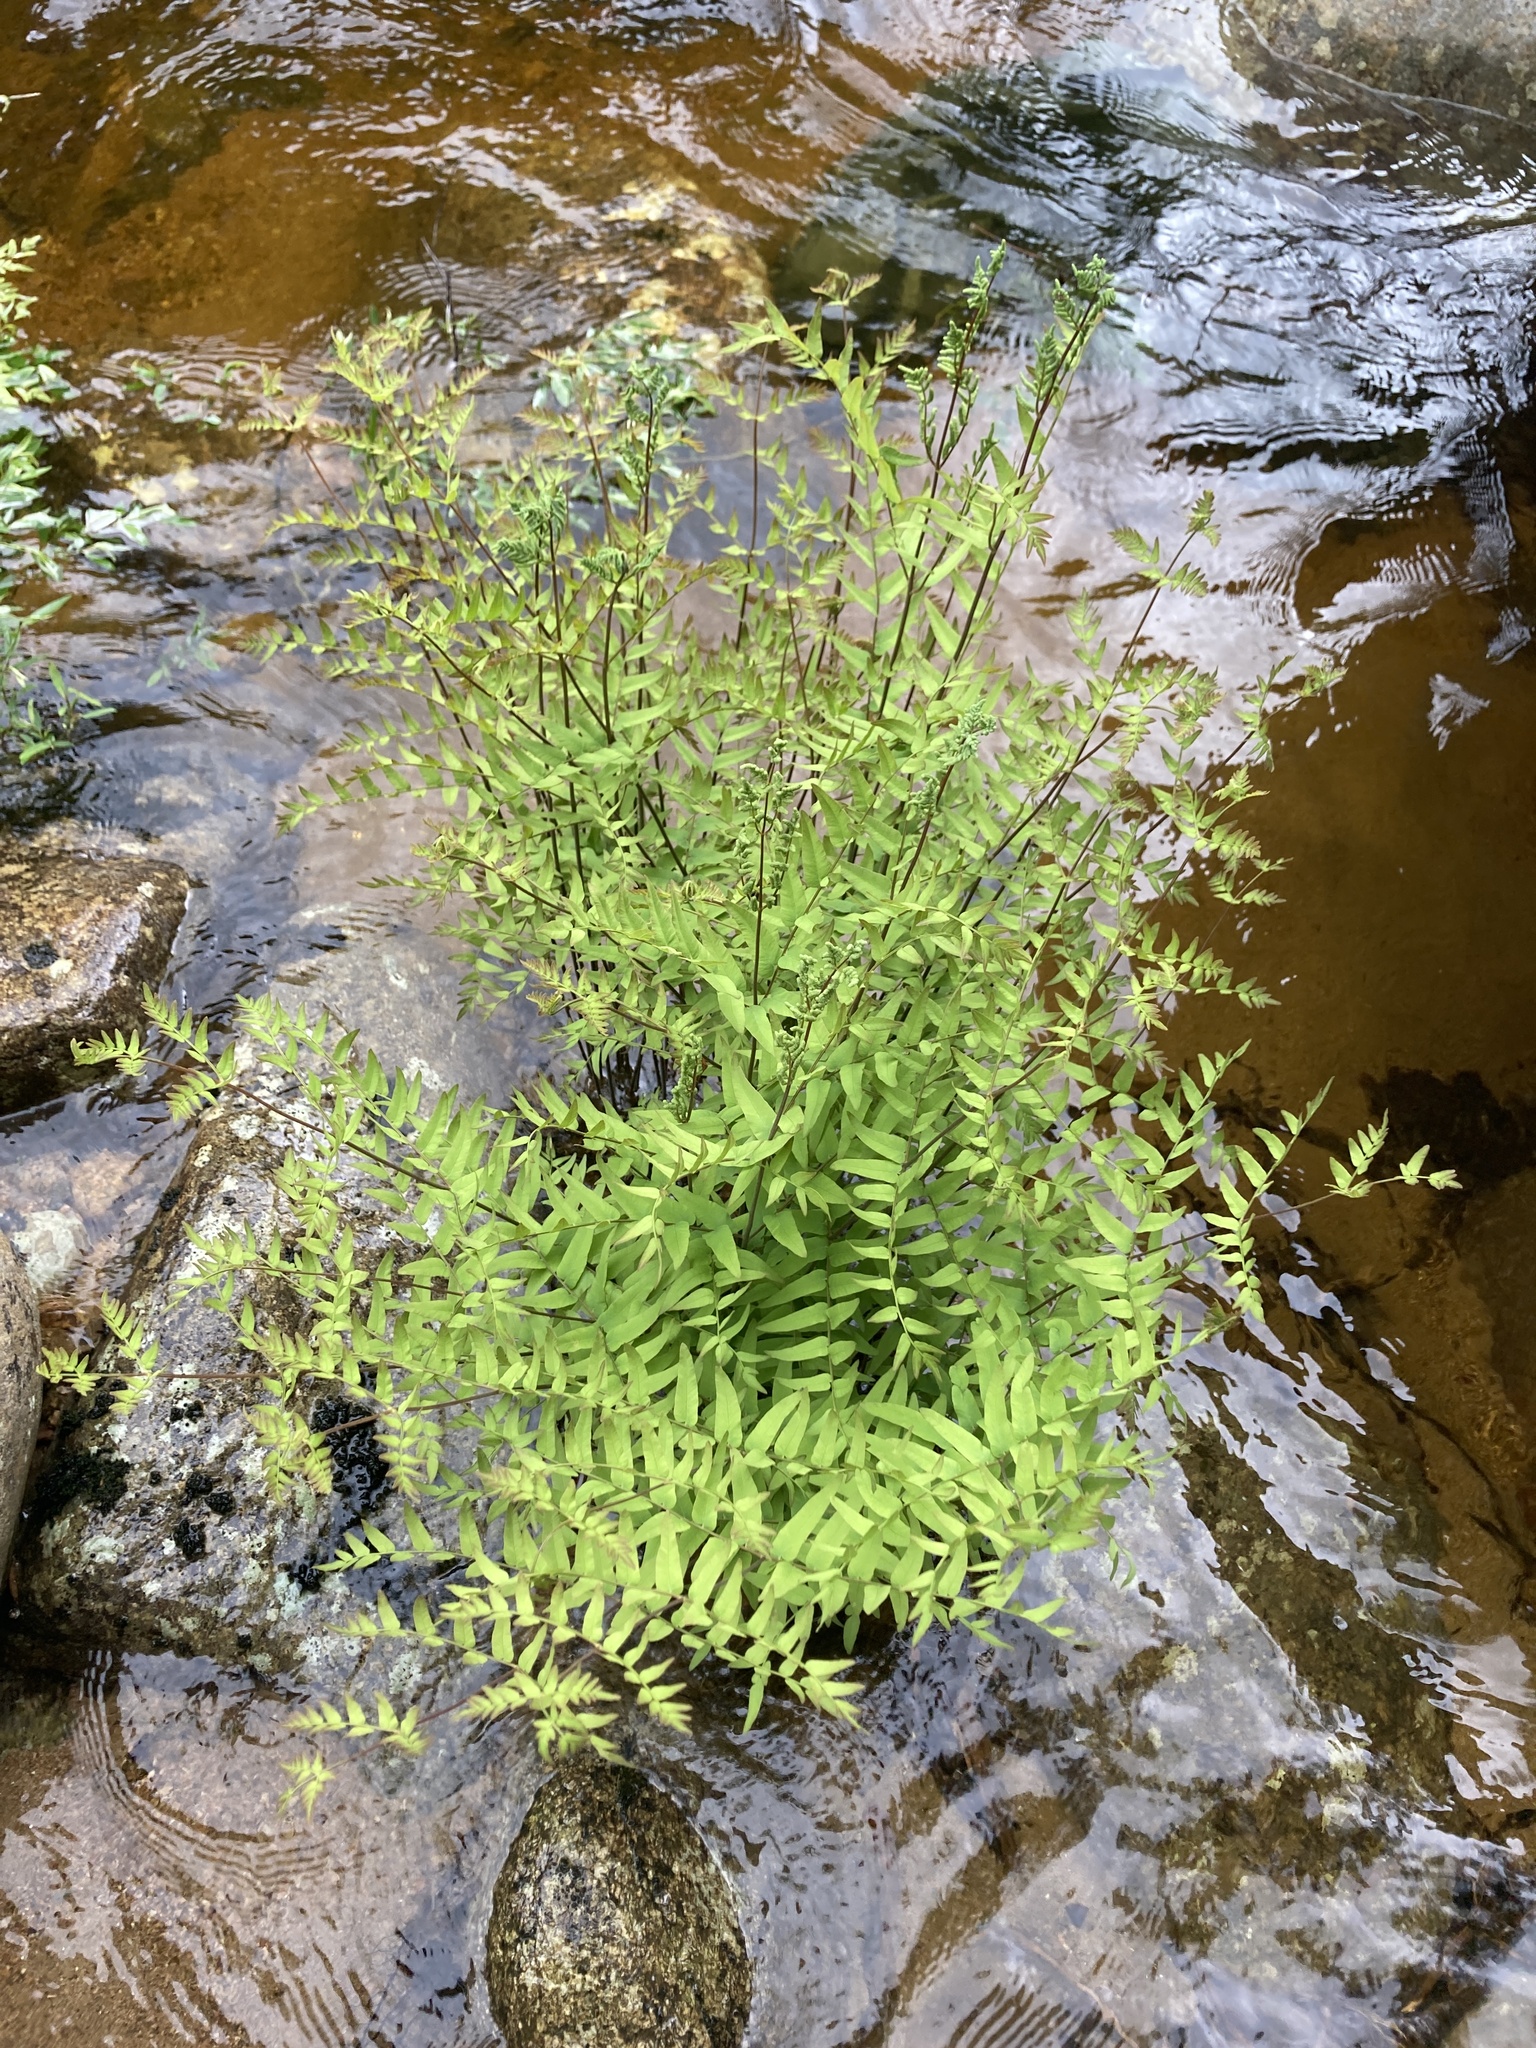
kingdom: Plantae
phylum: Tracheophyta
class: Polypodiopsida
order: Osmundales
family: Osmundaceae
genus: Osmunda
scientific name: Osmunda spectabilis
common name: American royal fern
